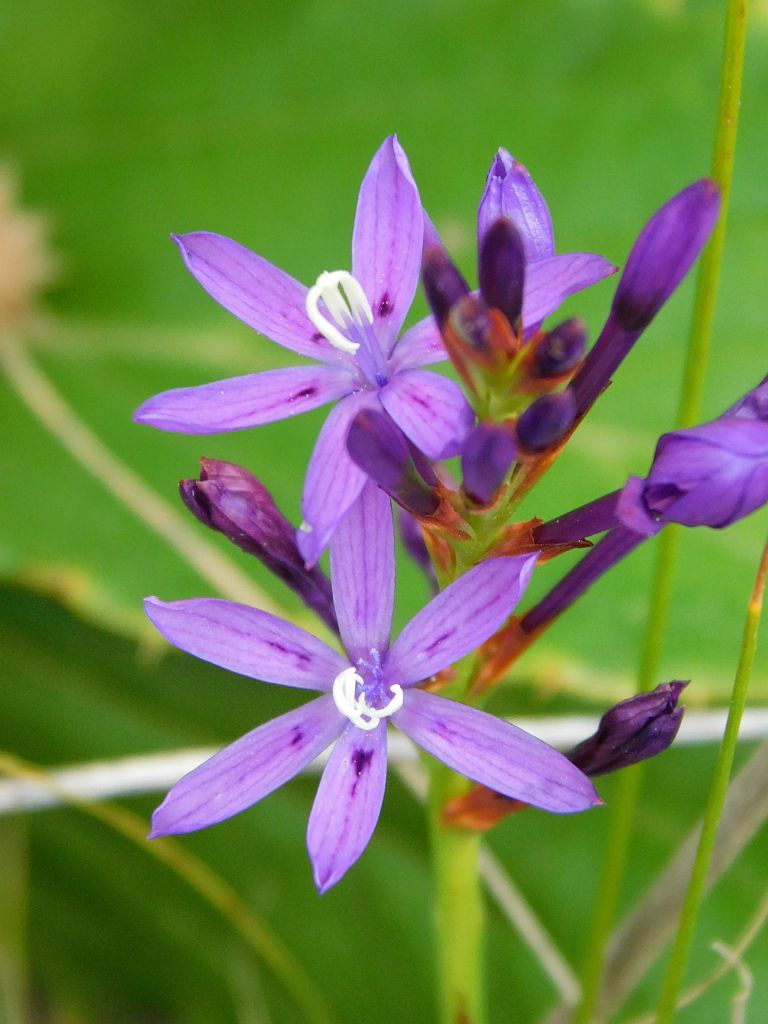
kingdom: Plantae
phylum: Tracheophyta
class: Liliopsida
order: Asparagales
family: Iridaceae
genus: Thereianthus
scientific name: Thereianthus bracteolatus
